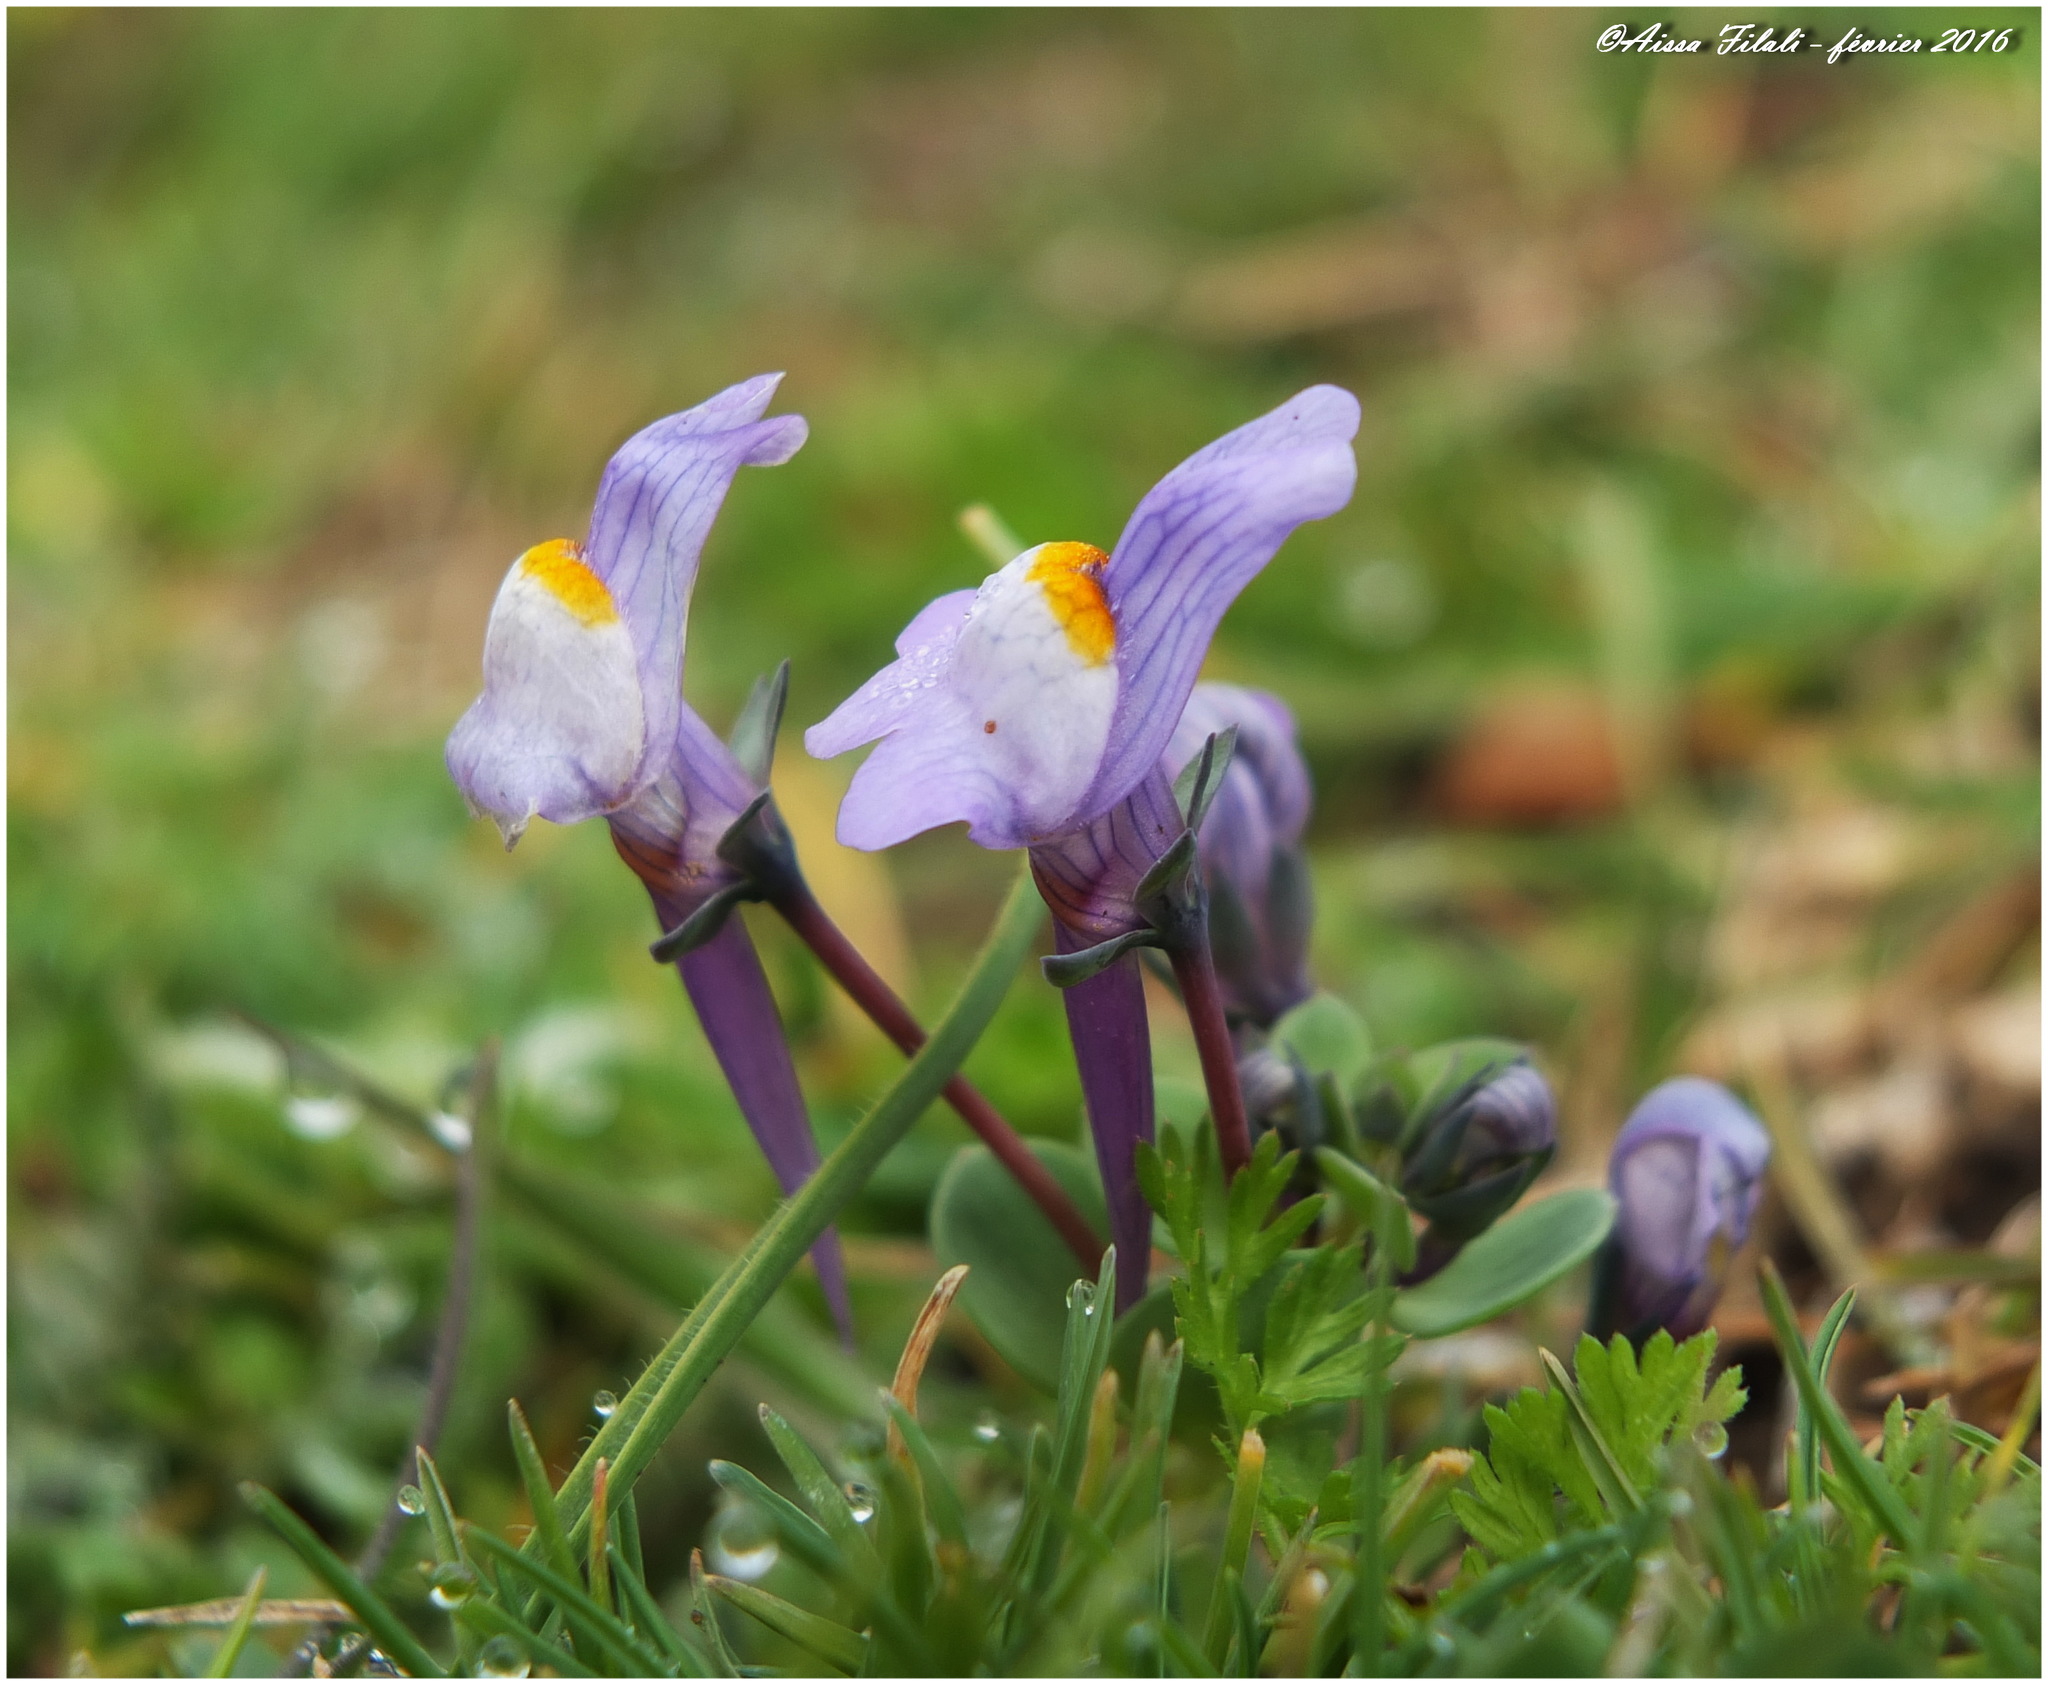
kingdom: Plantae
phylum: Tracheophyta
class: Magnoliopsida
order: Lamiales
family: Plantaginaceae
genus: Linaria
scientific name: Linaria reflexa
